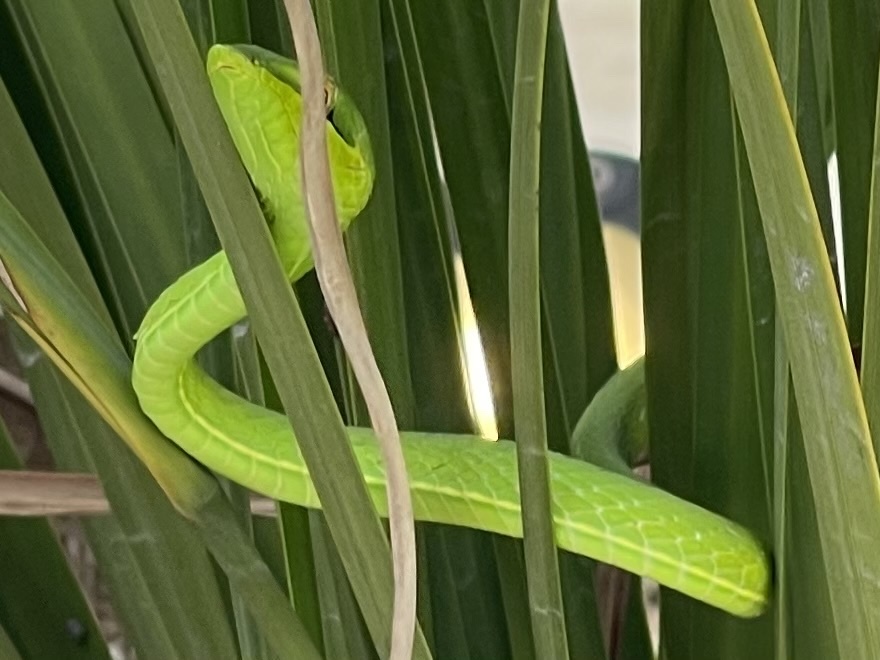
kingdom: Animalia
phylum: Chordata
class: Squamata
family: Colubridae
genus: Oxybelis
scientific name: Oxybelis fulgidus
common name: Green vine snake
